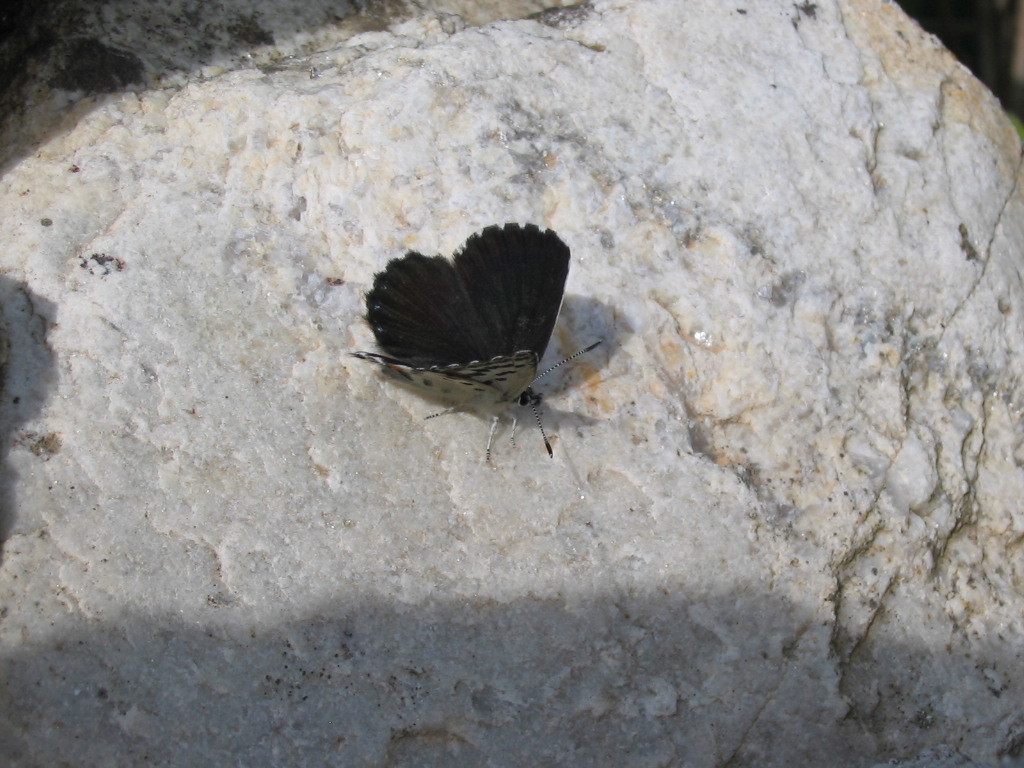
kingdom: Animalia
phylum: Arthropoda
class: Insecta
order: Lepidoptera
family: Lycaenidae
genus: Scolitantides
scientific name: Scolitantides orion
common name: Chequered blue
